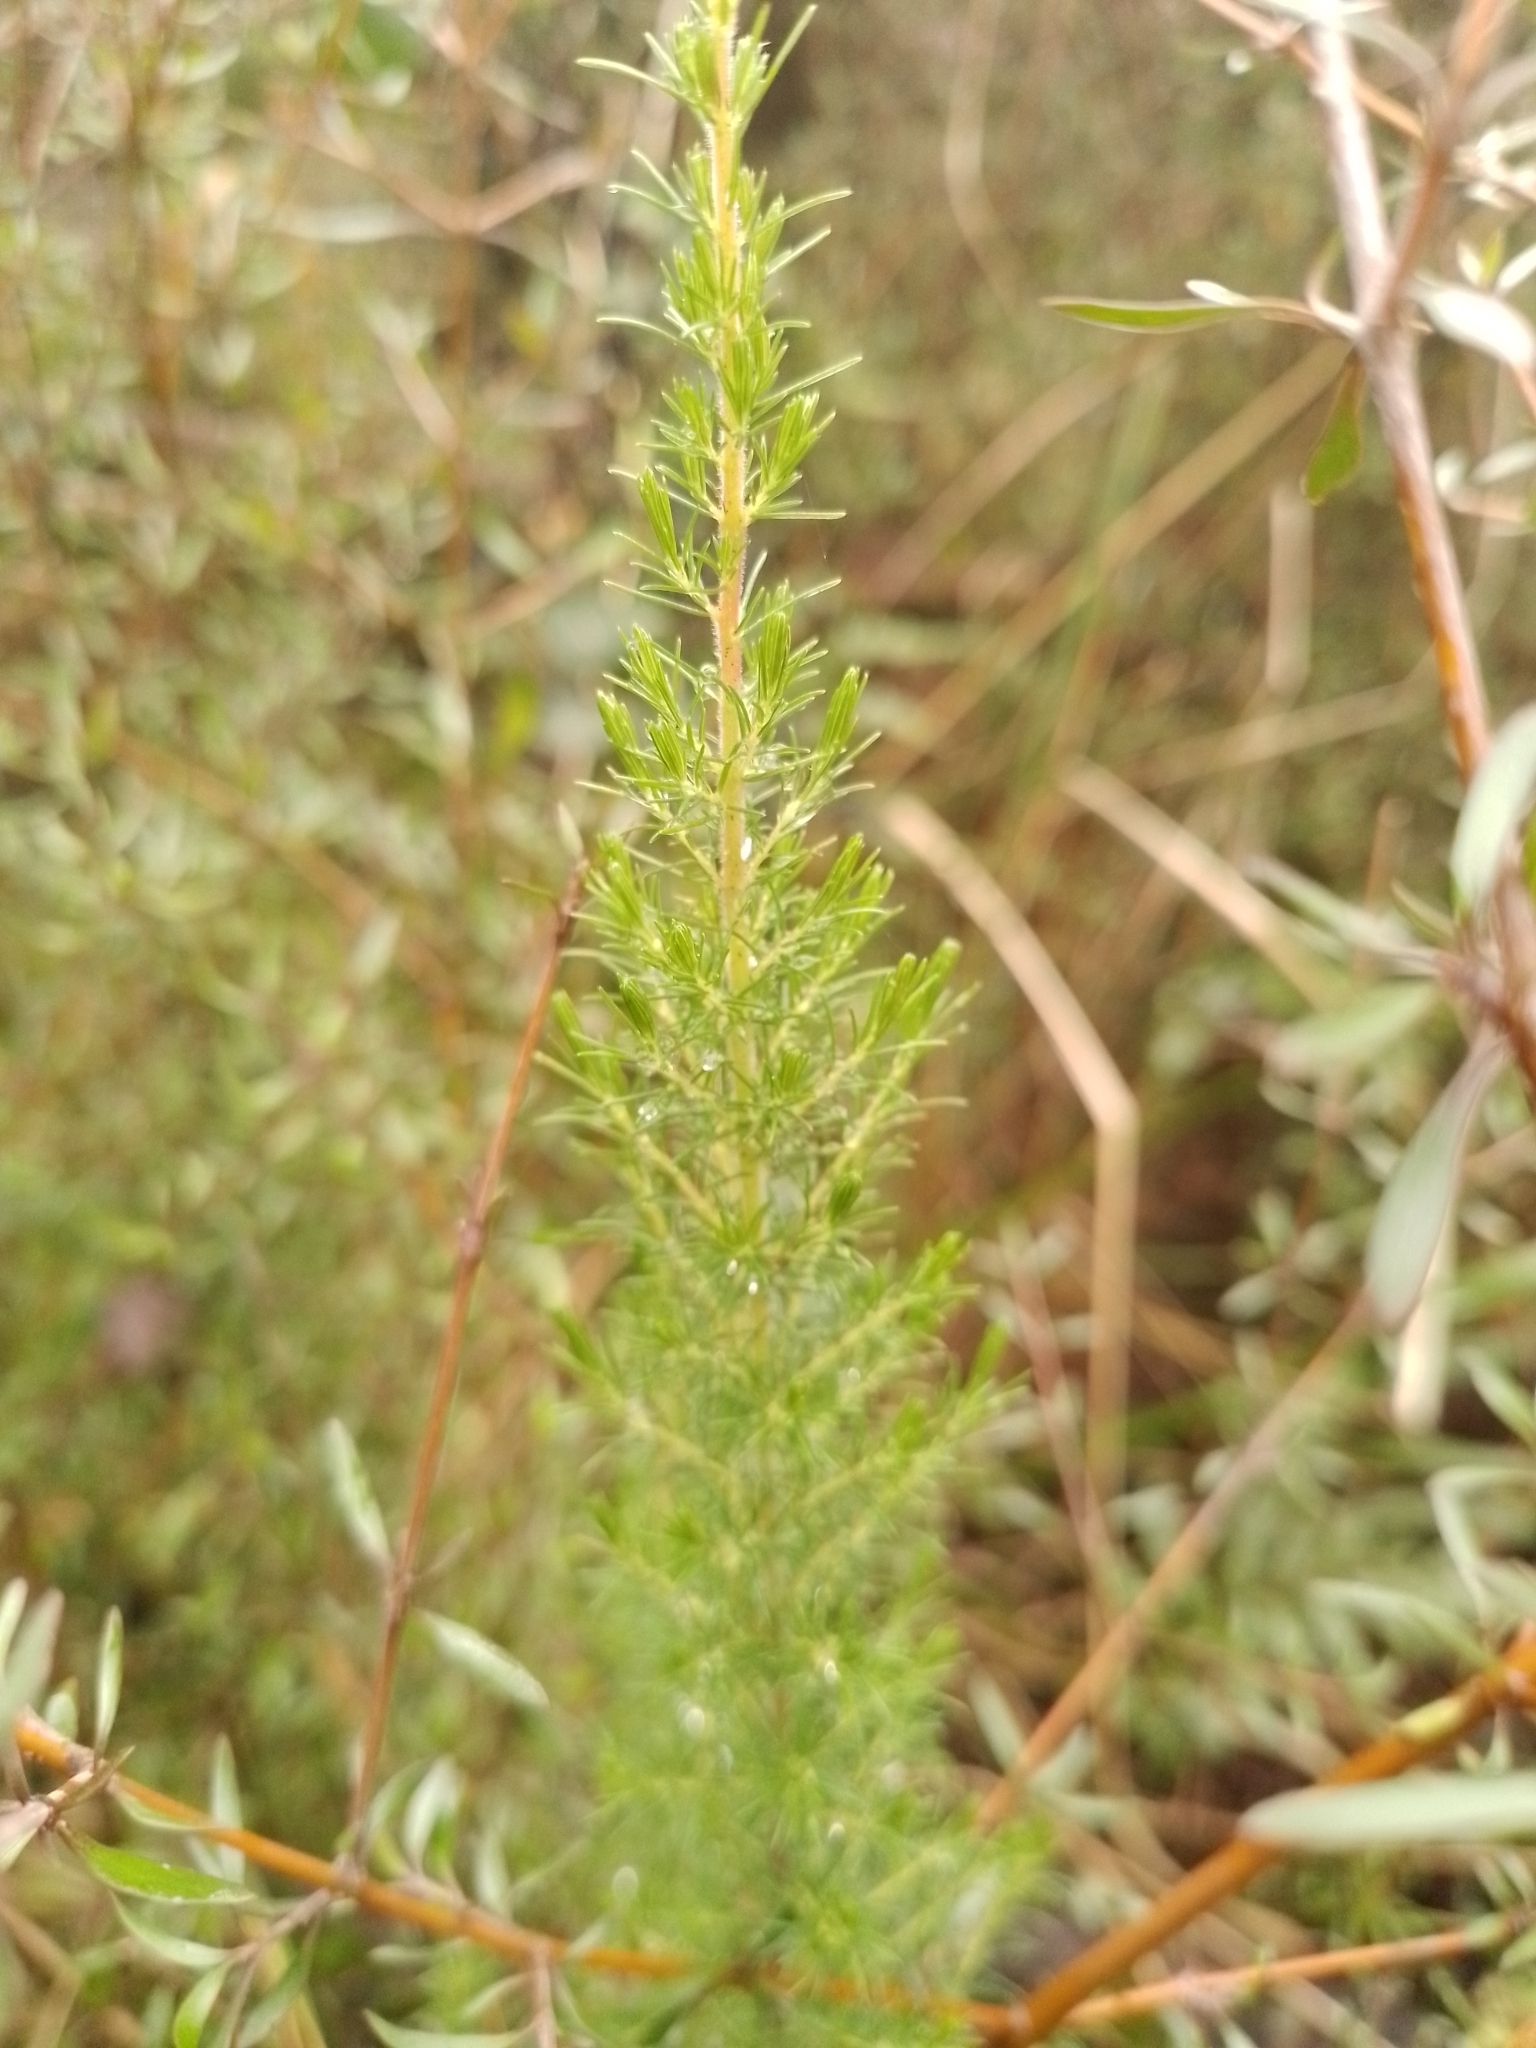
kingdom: Plantae
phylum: Tracheophyta
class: Magnoliopsida
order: Ericales
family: Ericaceae
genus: Erica
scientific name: Erica lusitanica
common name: Spanish heath
